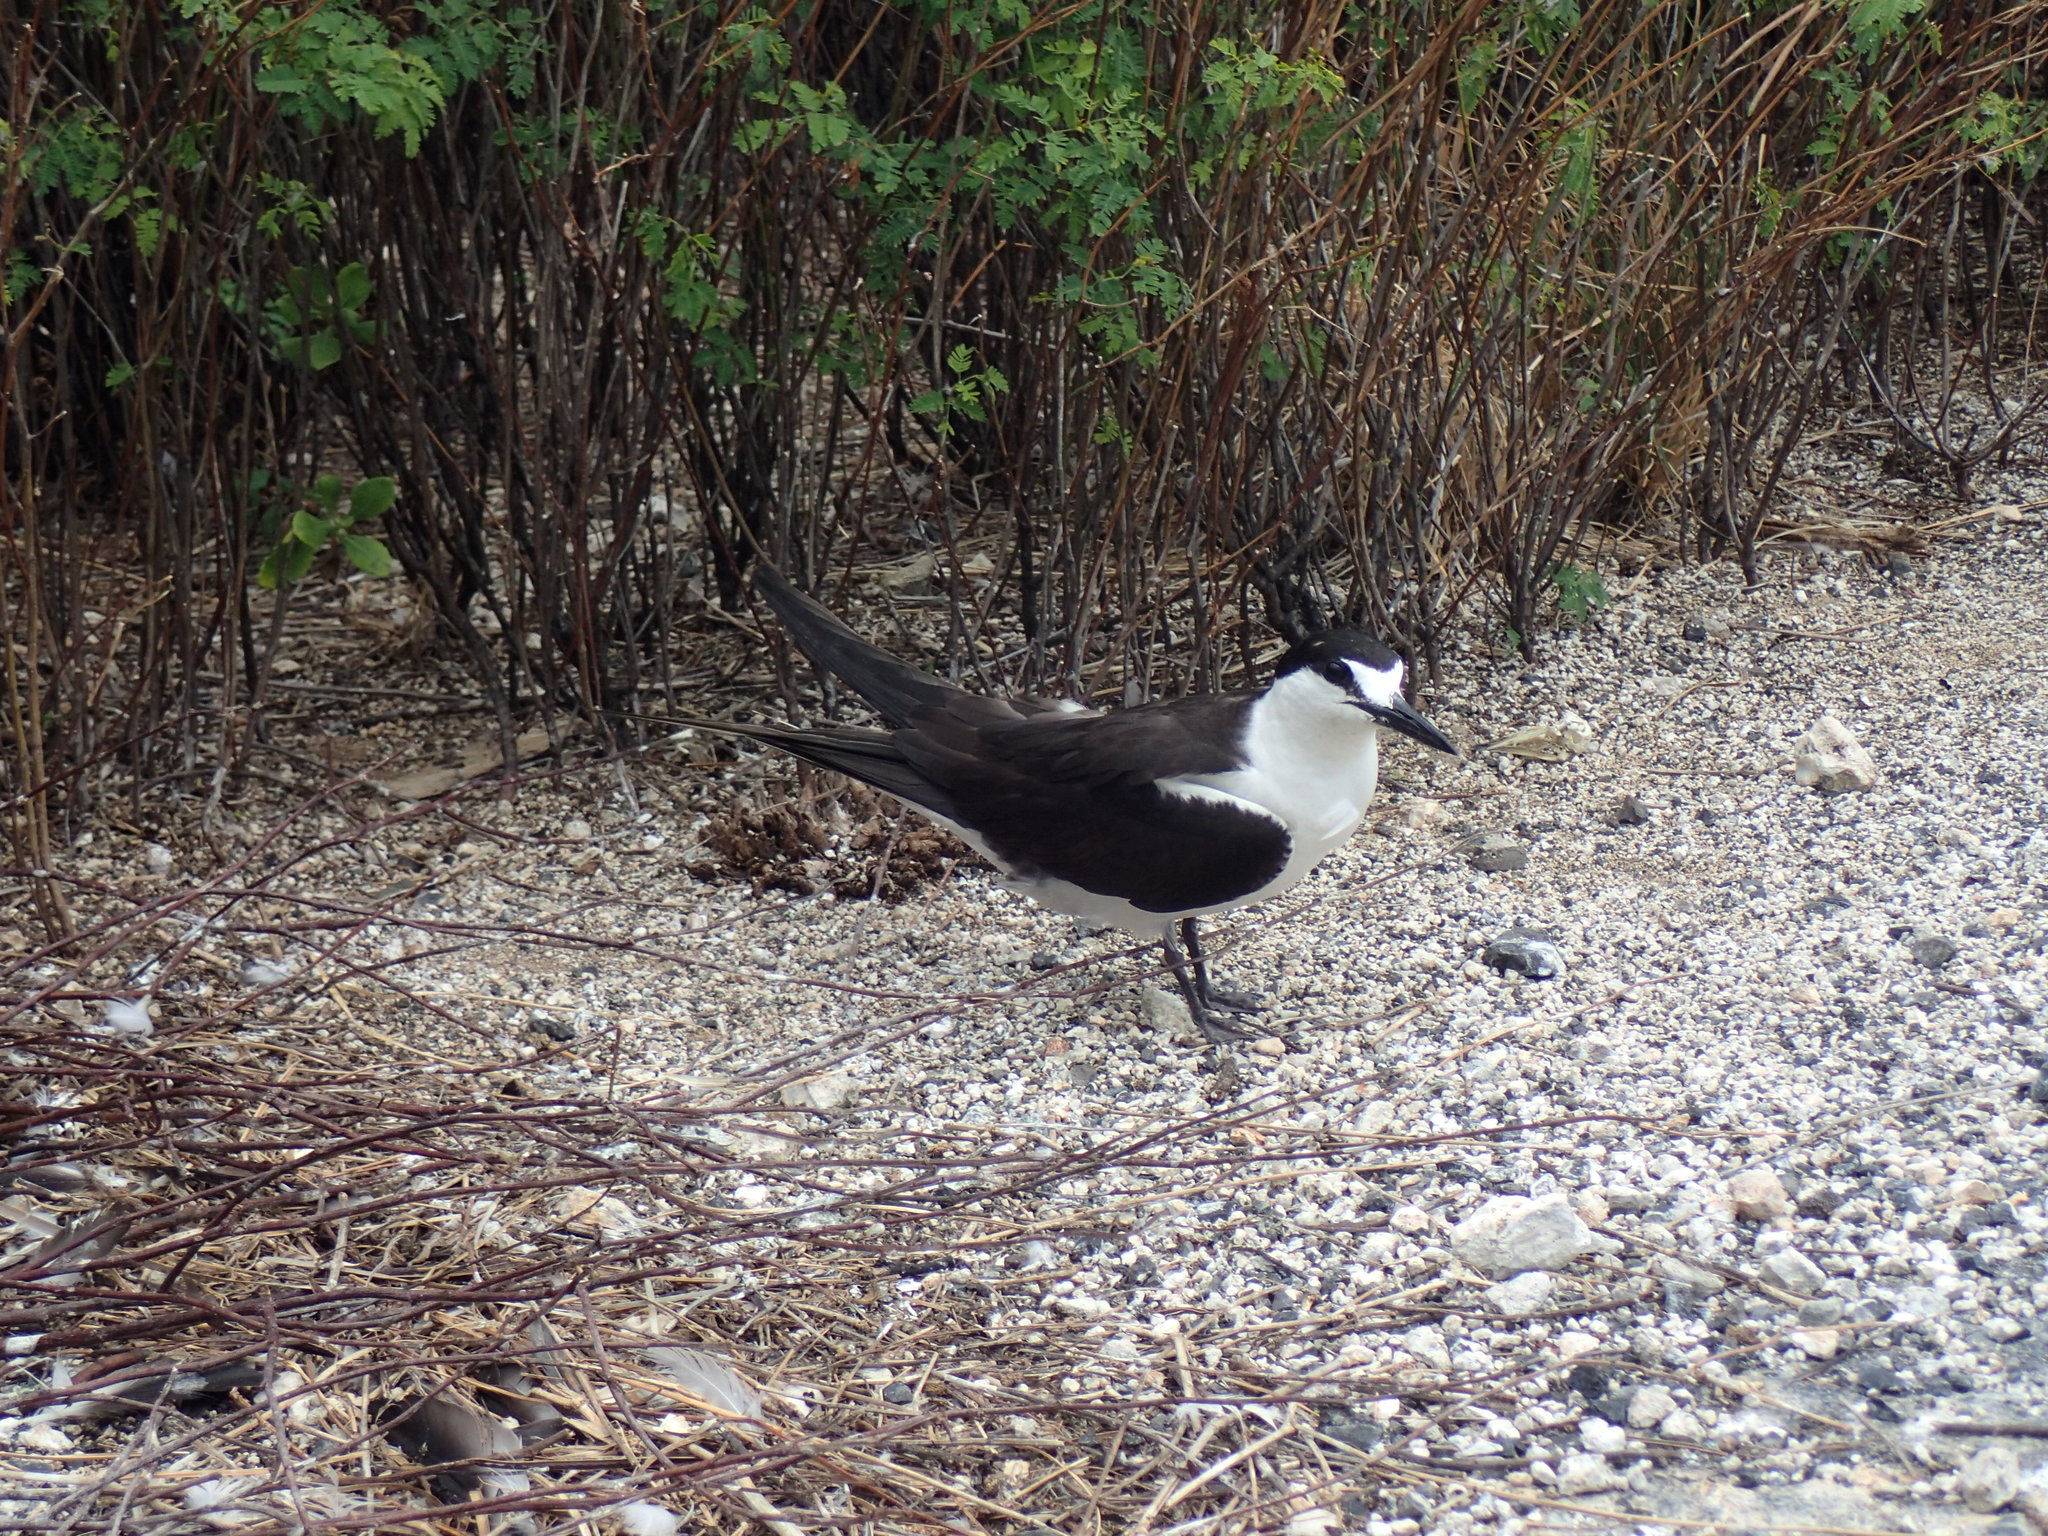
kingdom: Animalia
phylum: Chordata
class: Aves
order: Charadriiformes
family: Laridae
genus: Onychoprion
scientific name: Onychoprion fuscatus
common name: Sooty tern
